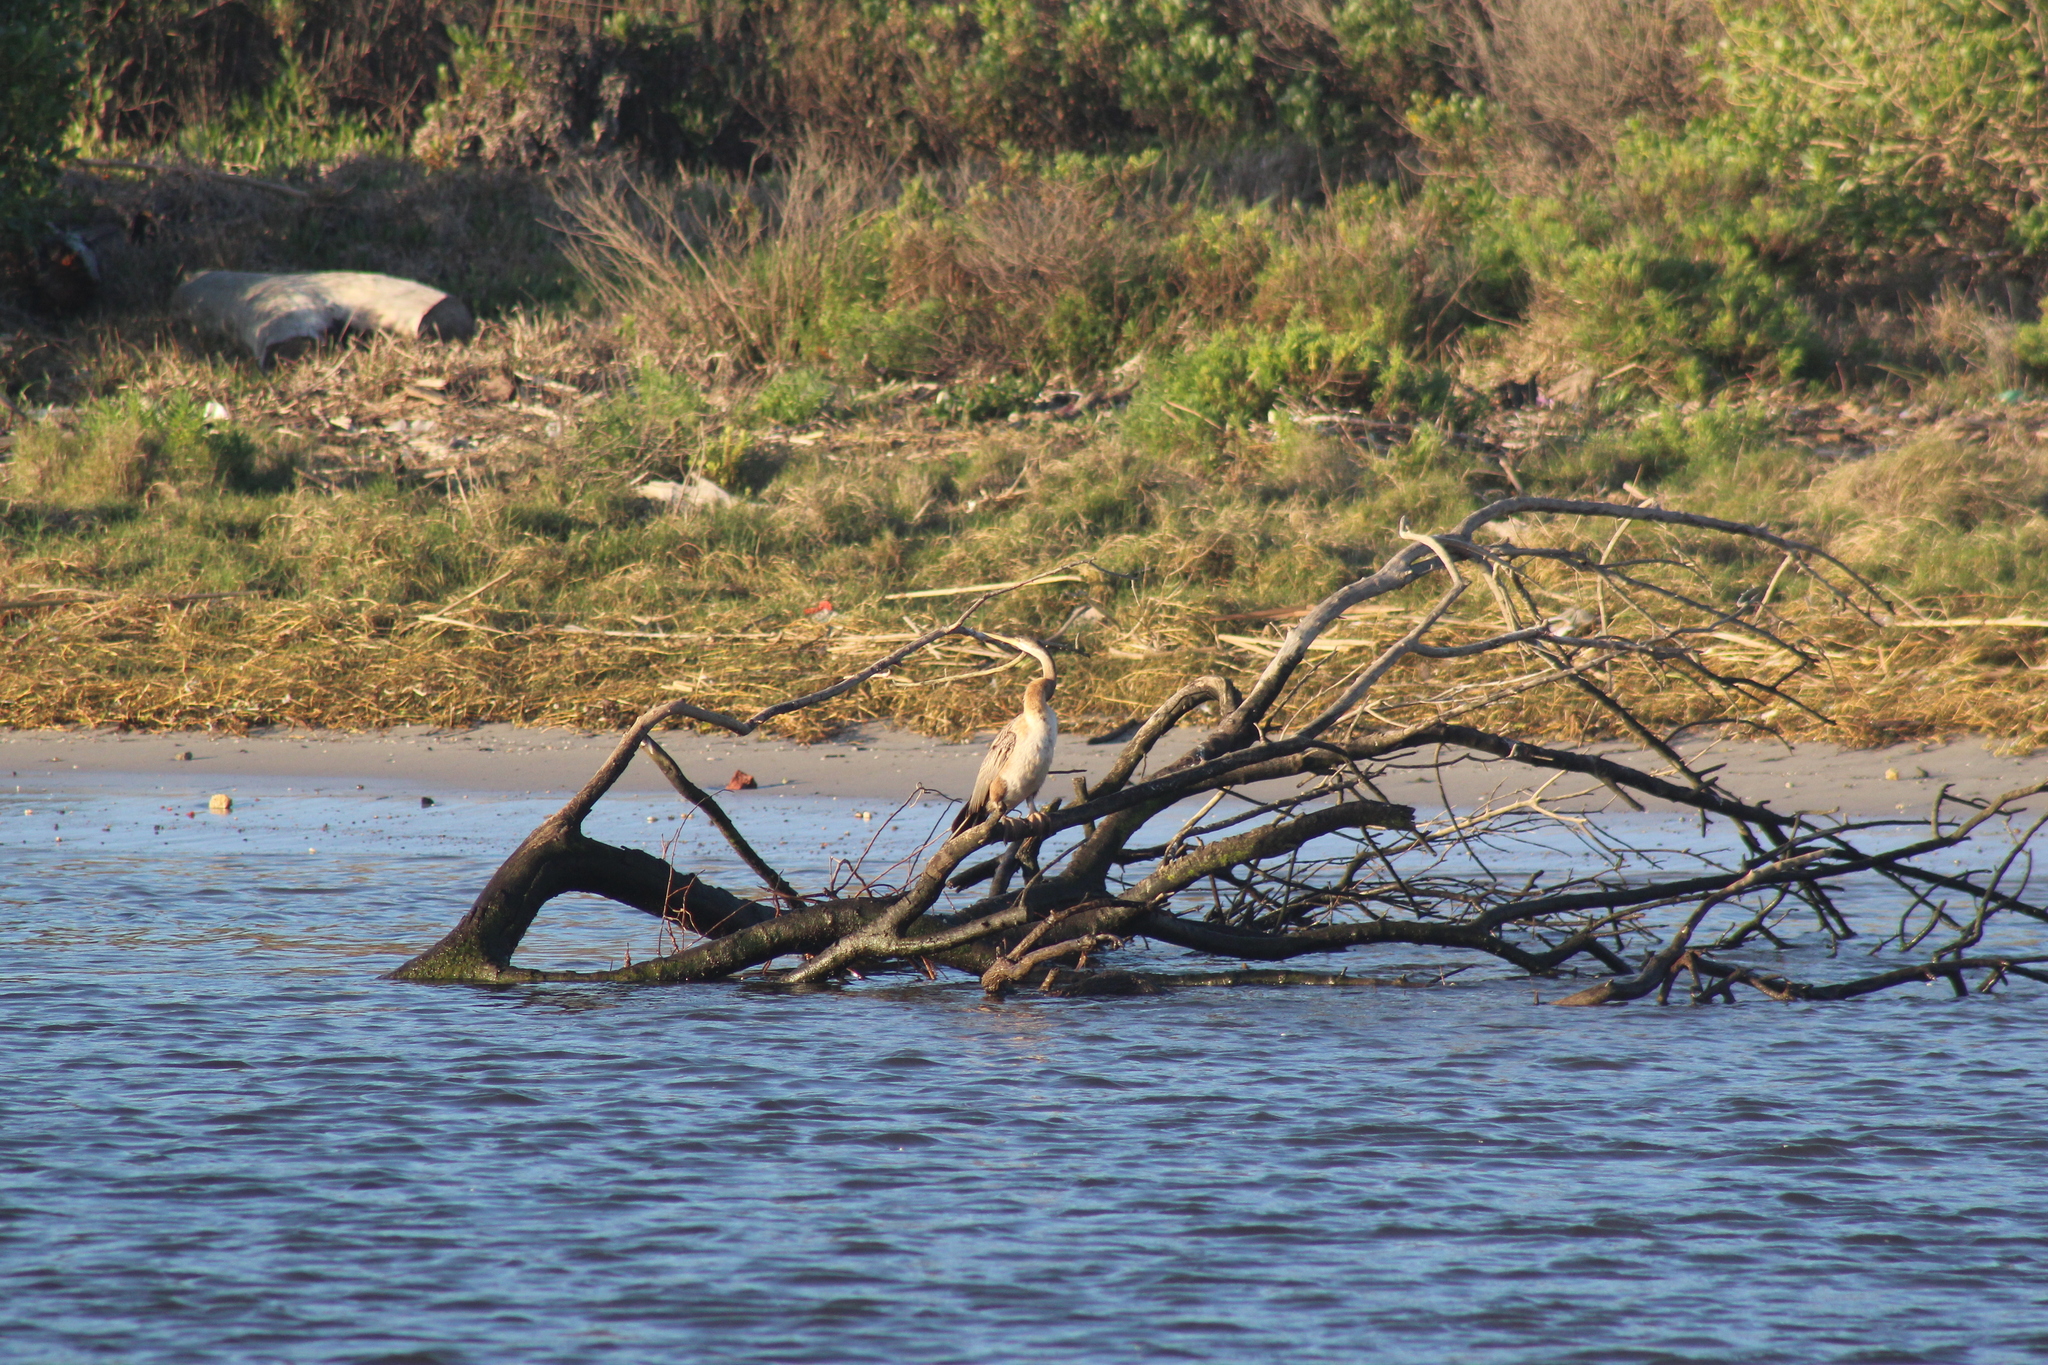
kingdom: Animalia
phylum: Chordata
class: Aves
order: Suliformes
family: Anhingidae
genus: Anhinga
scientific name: Anhinga rufa
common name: African darter
